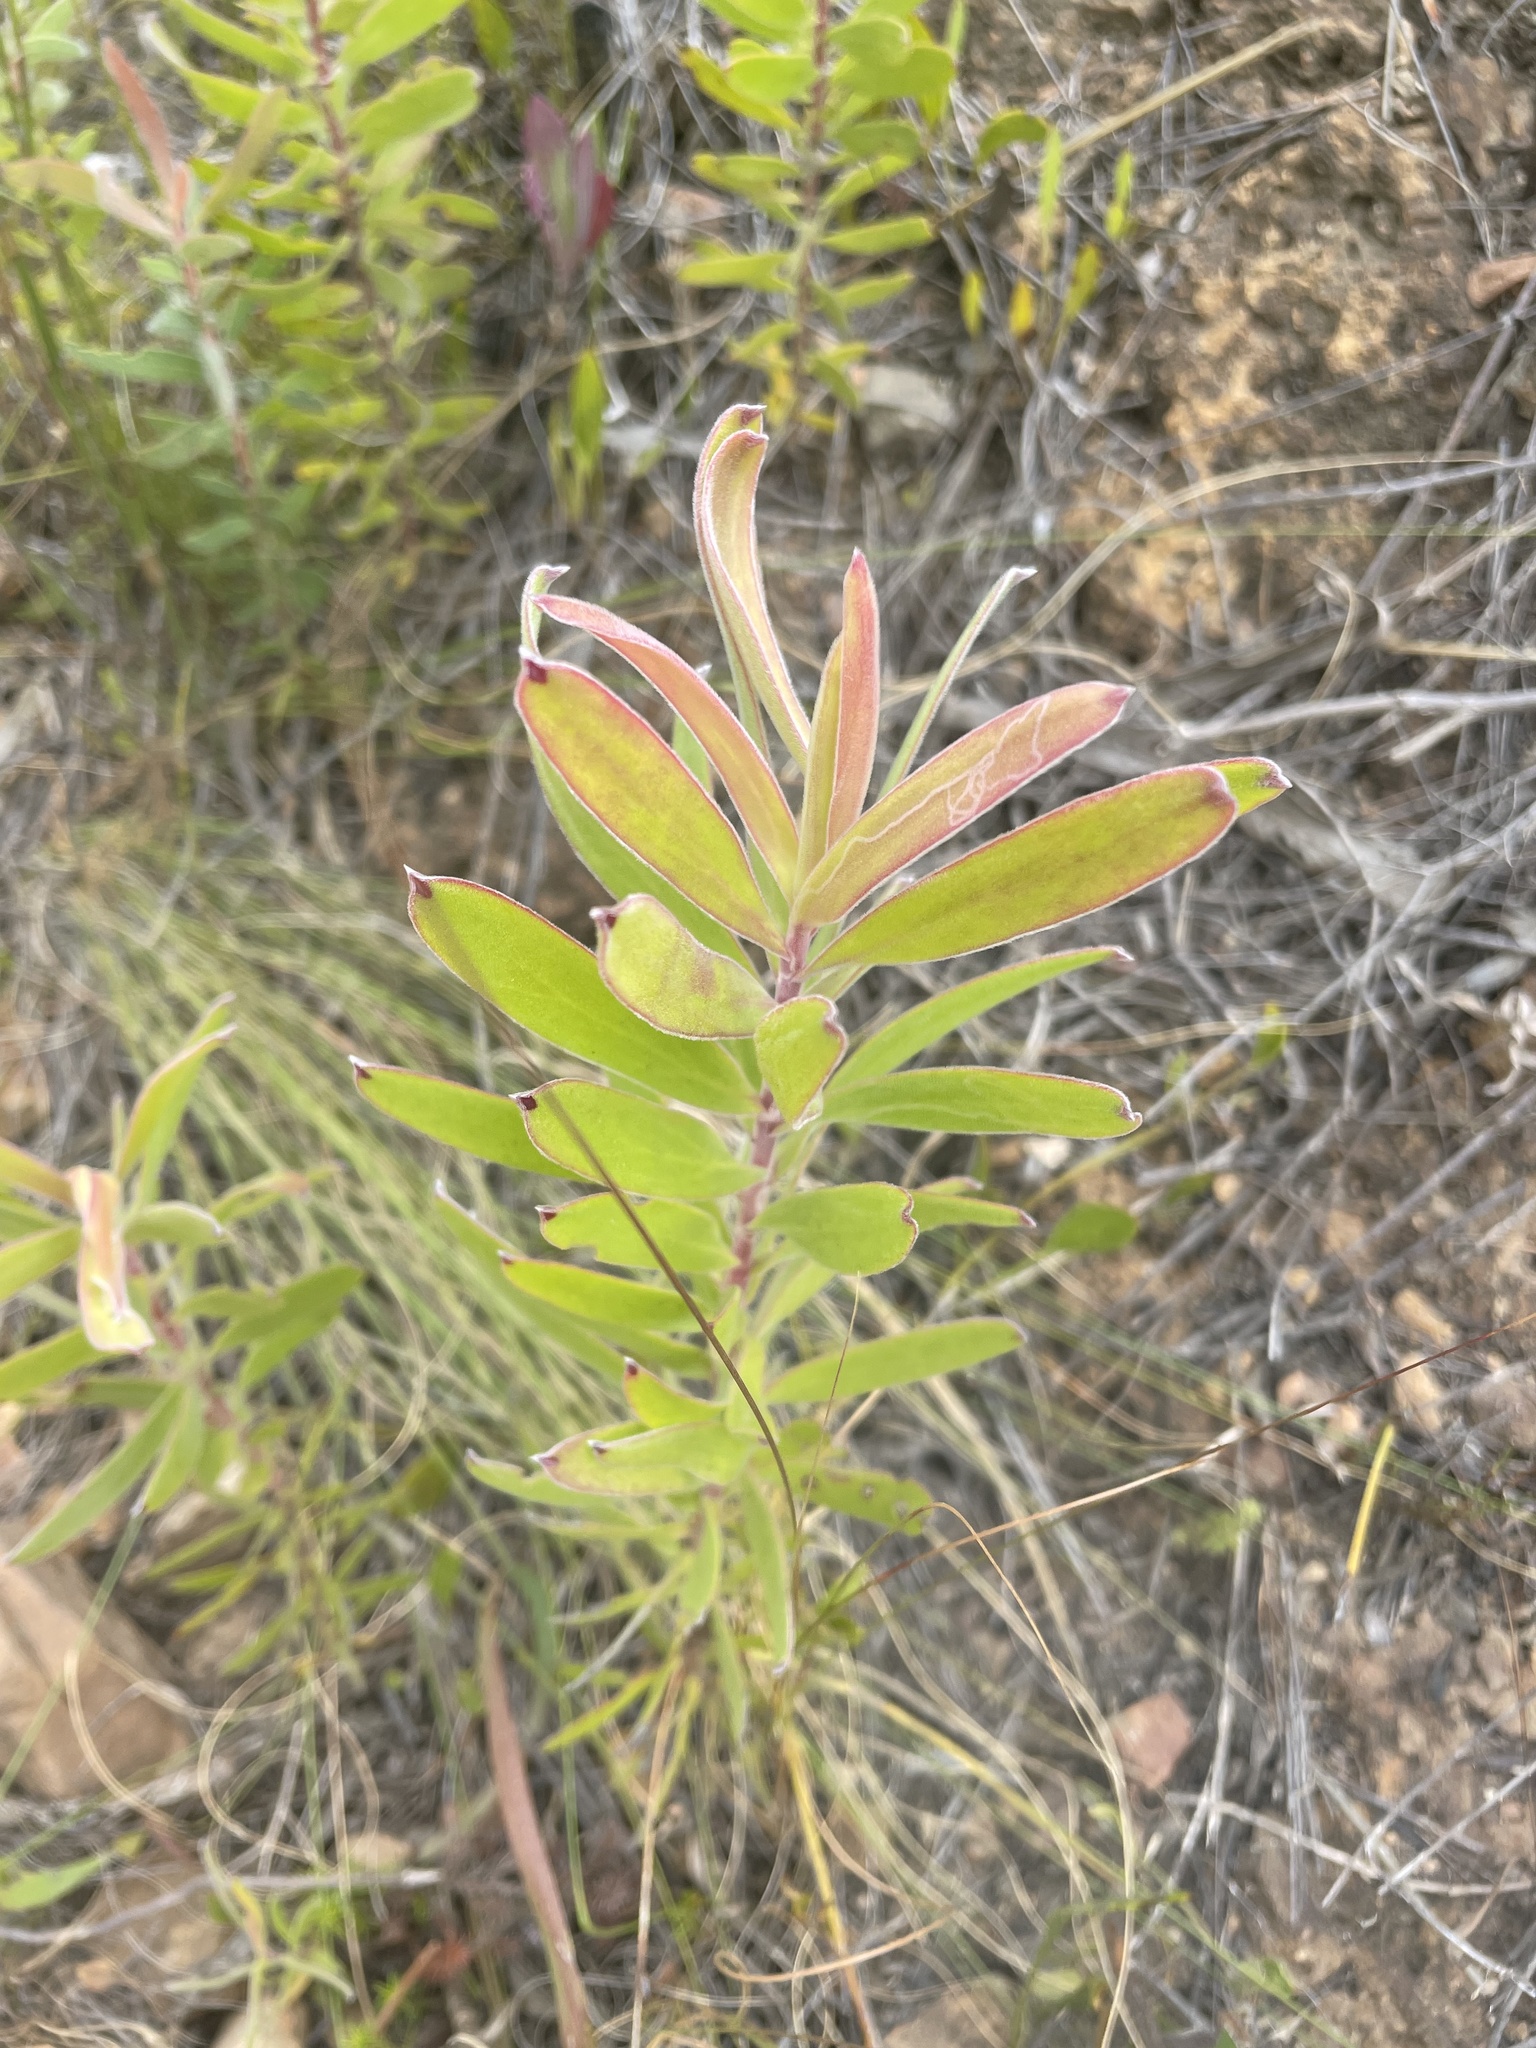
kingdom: Plantae
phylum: Tracheophyta
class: Magnoliopsida
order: Proteales
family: Proteaceae
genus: Leucadendron
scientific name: Leucadendron laureolum
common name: Golden sunshinebush
